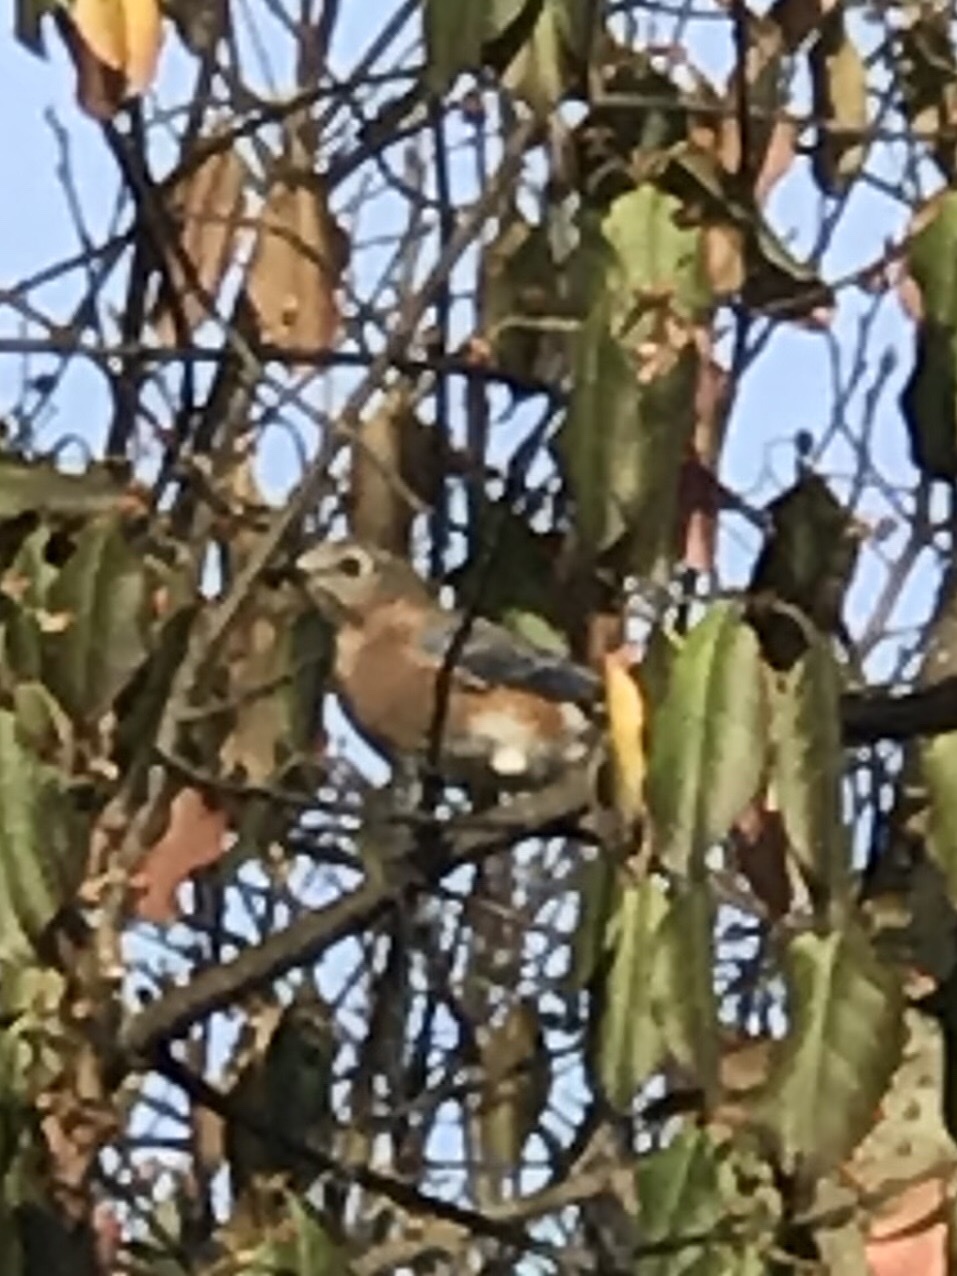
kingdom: Animalia
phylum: Chordata
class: Aves
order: Passeriformes
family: Turdidae
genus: Sialia
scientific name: Sialia sialis
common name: Eastern bluebird
